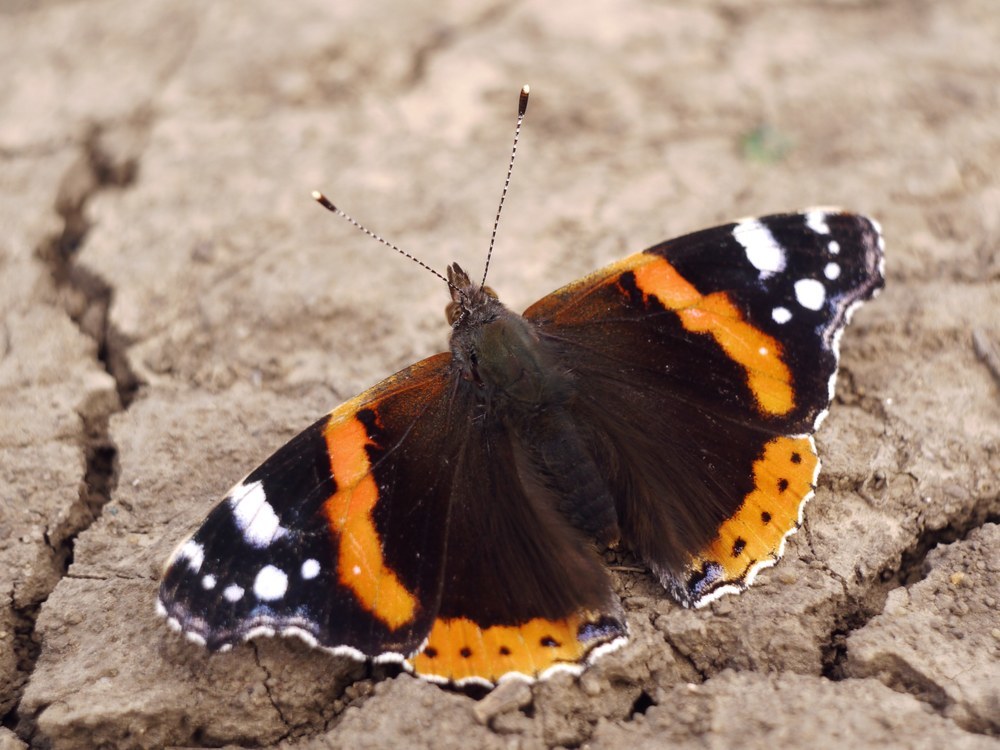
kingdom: Animalia
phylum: Arthropoda
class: Insecta
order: Lepidoptera
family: Nymphalidae
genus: Vanessa
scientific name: Vanessa atalanta
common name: Red admiral
